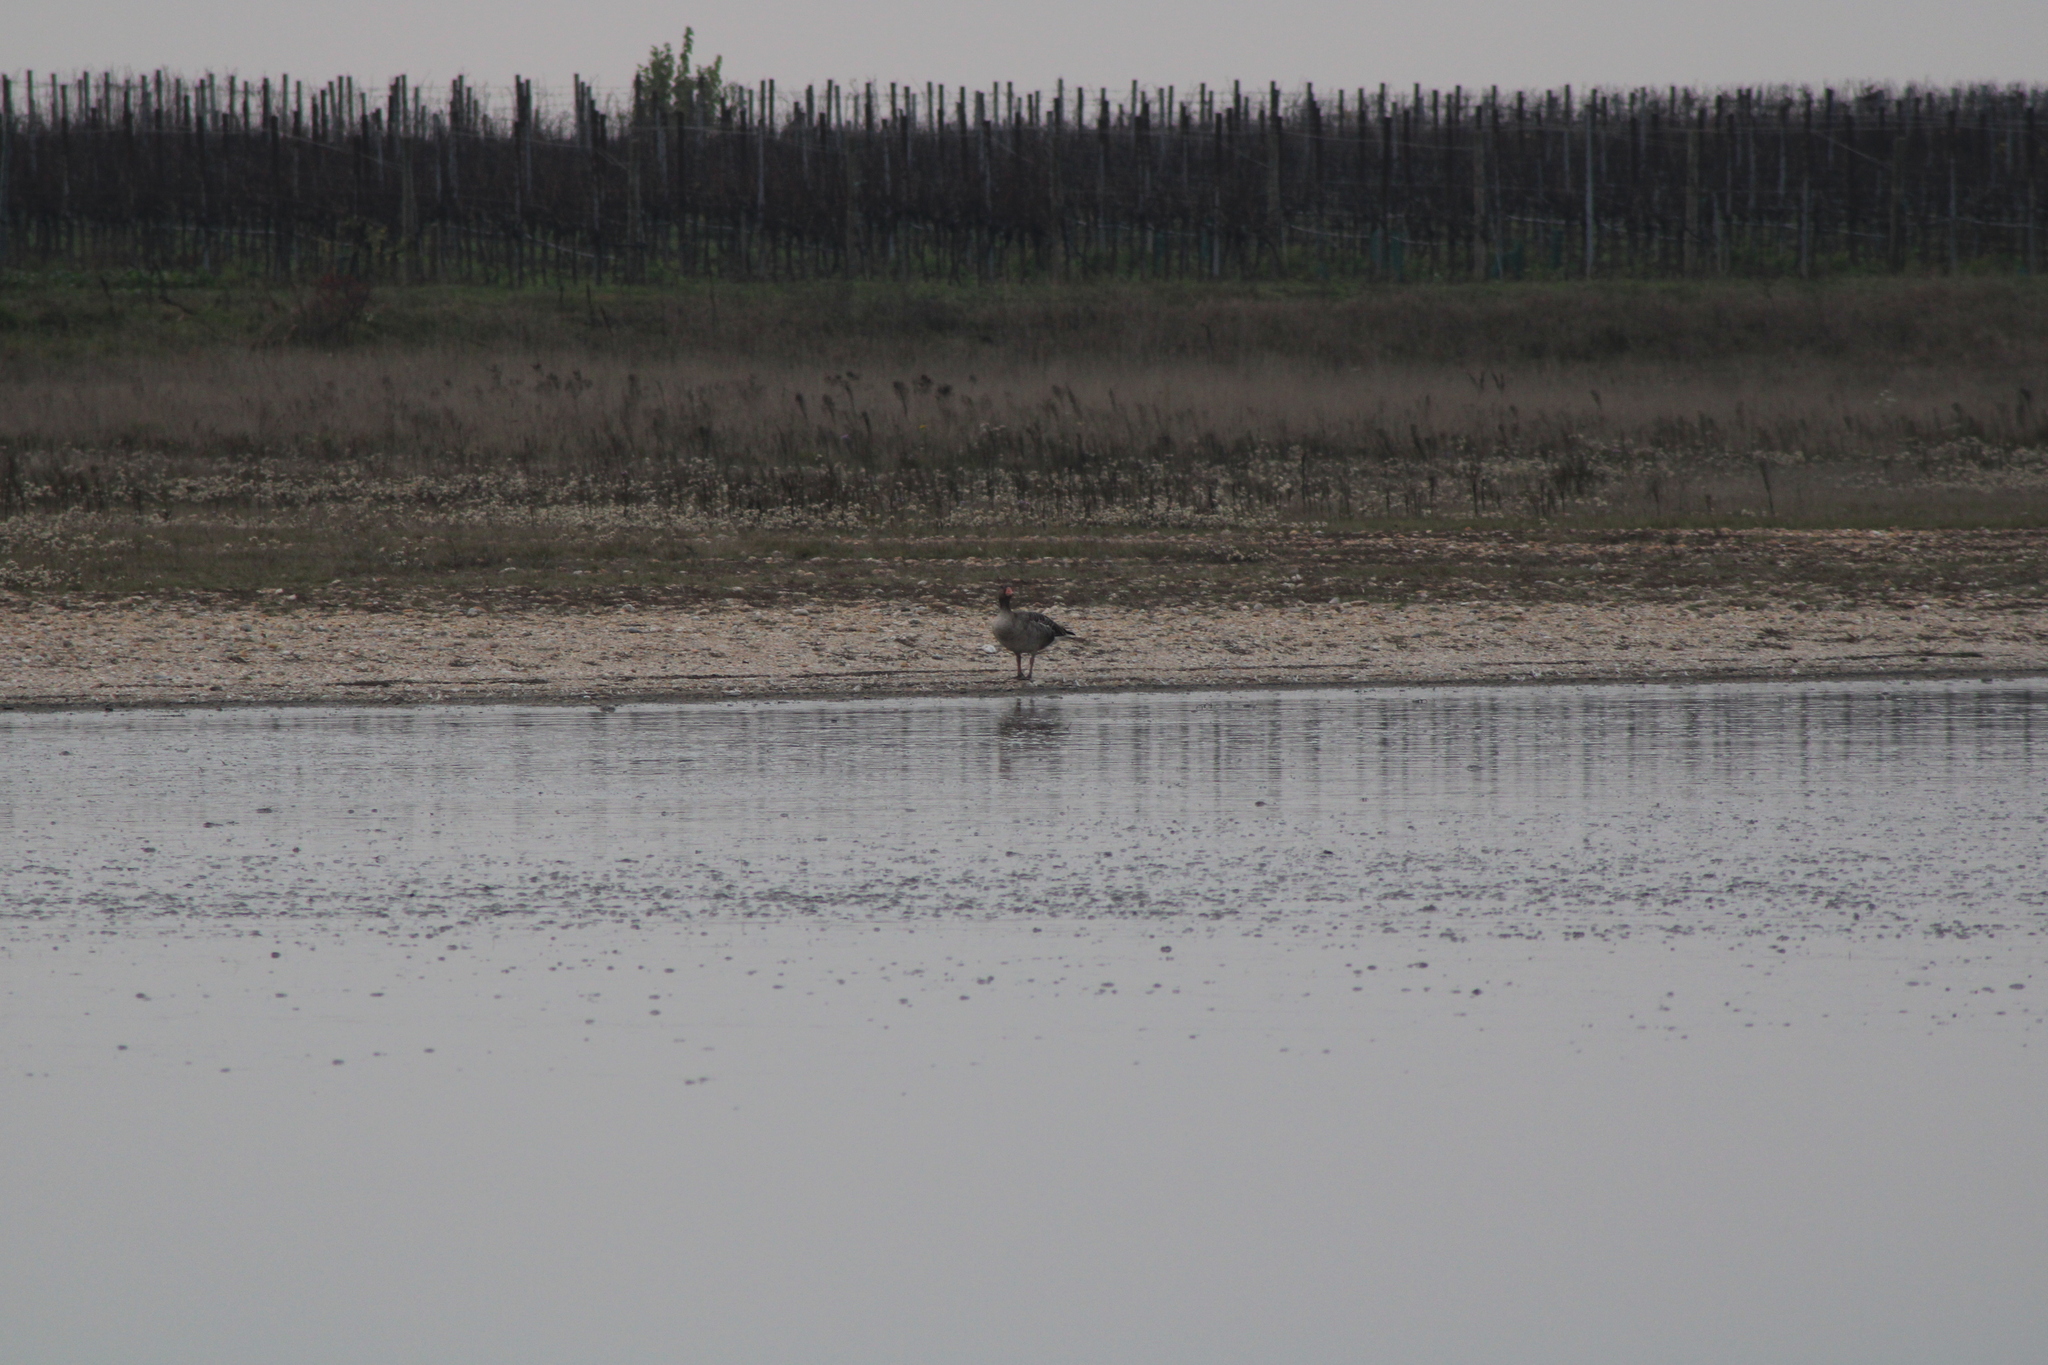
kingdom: Animalia
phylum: Chordata
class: Aves
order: Anseriformes
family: Anatidae
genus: Anser
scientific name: Anser anser
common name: Greylag goose
